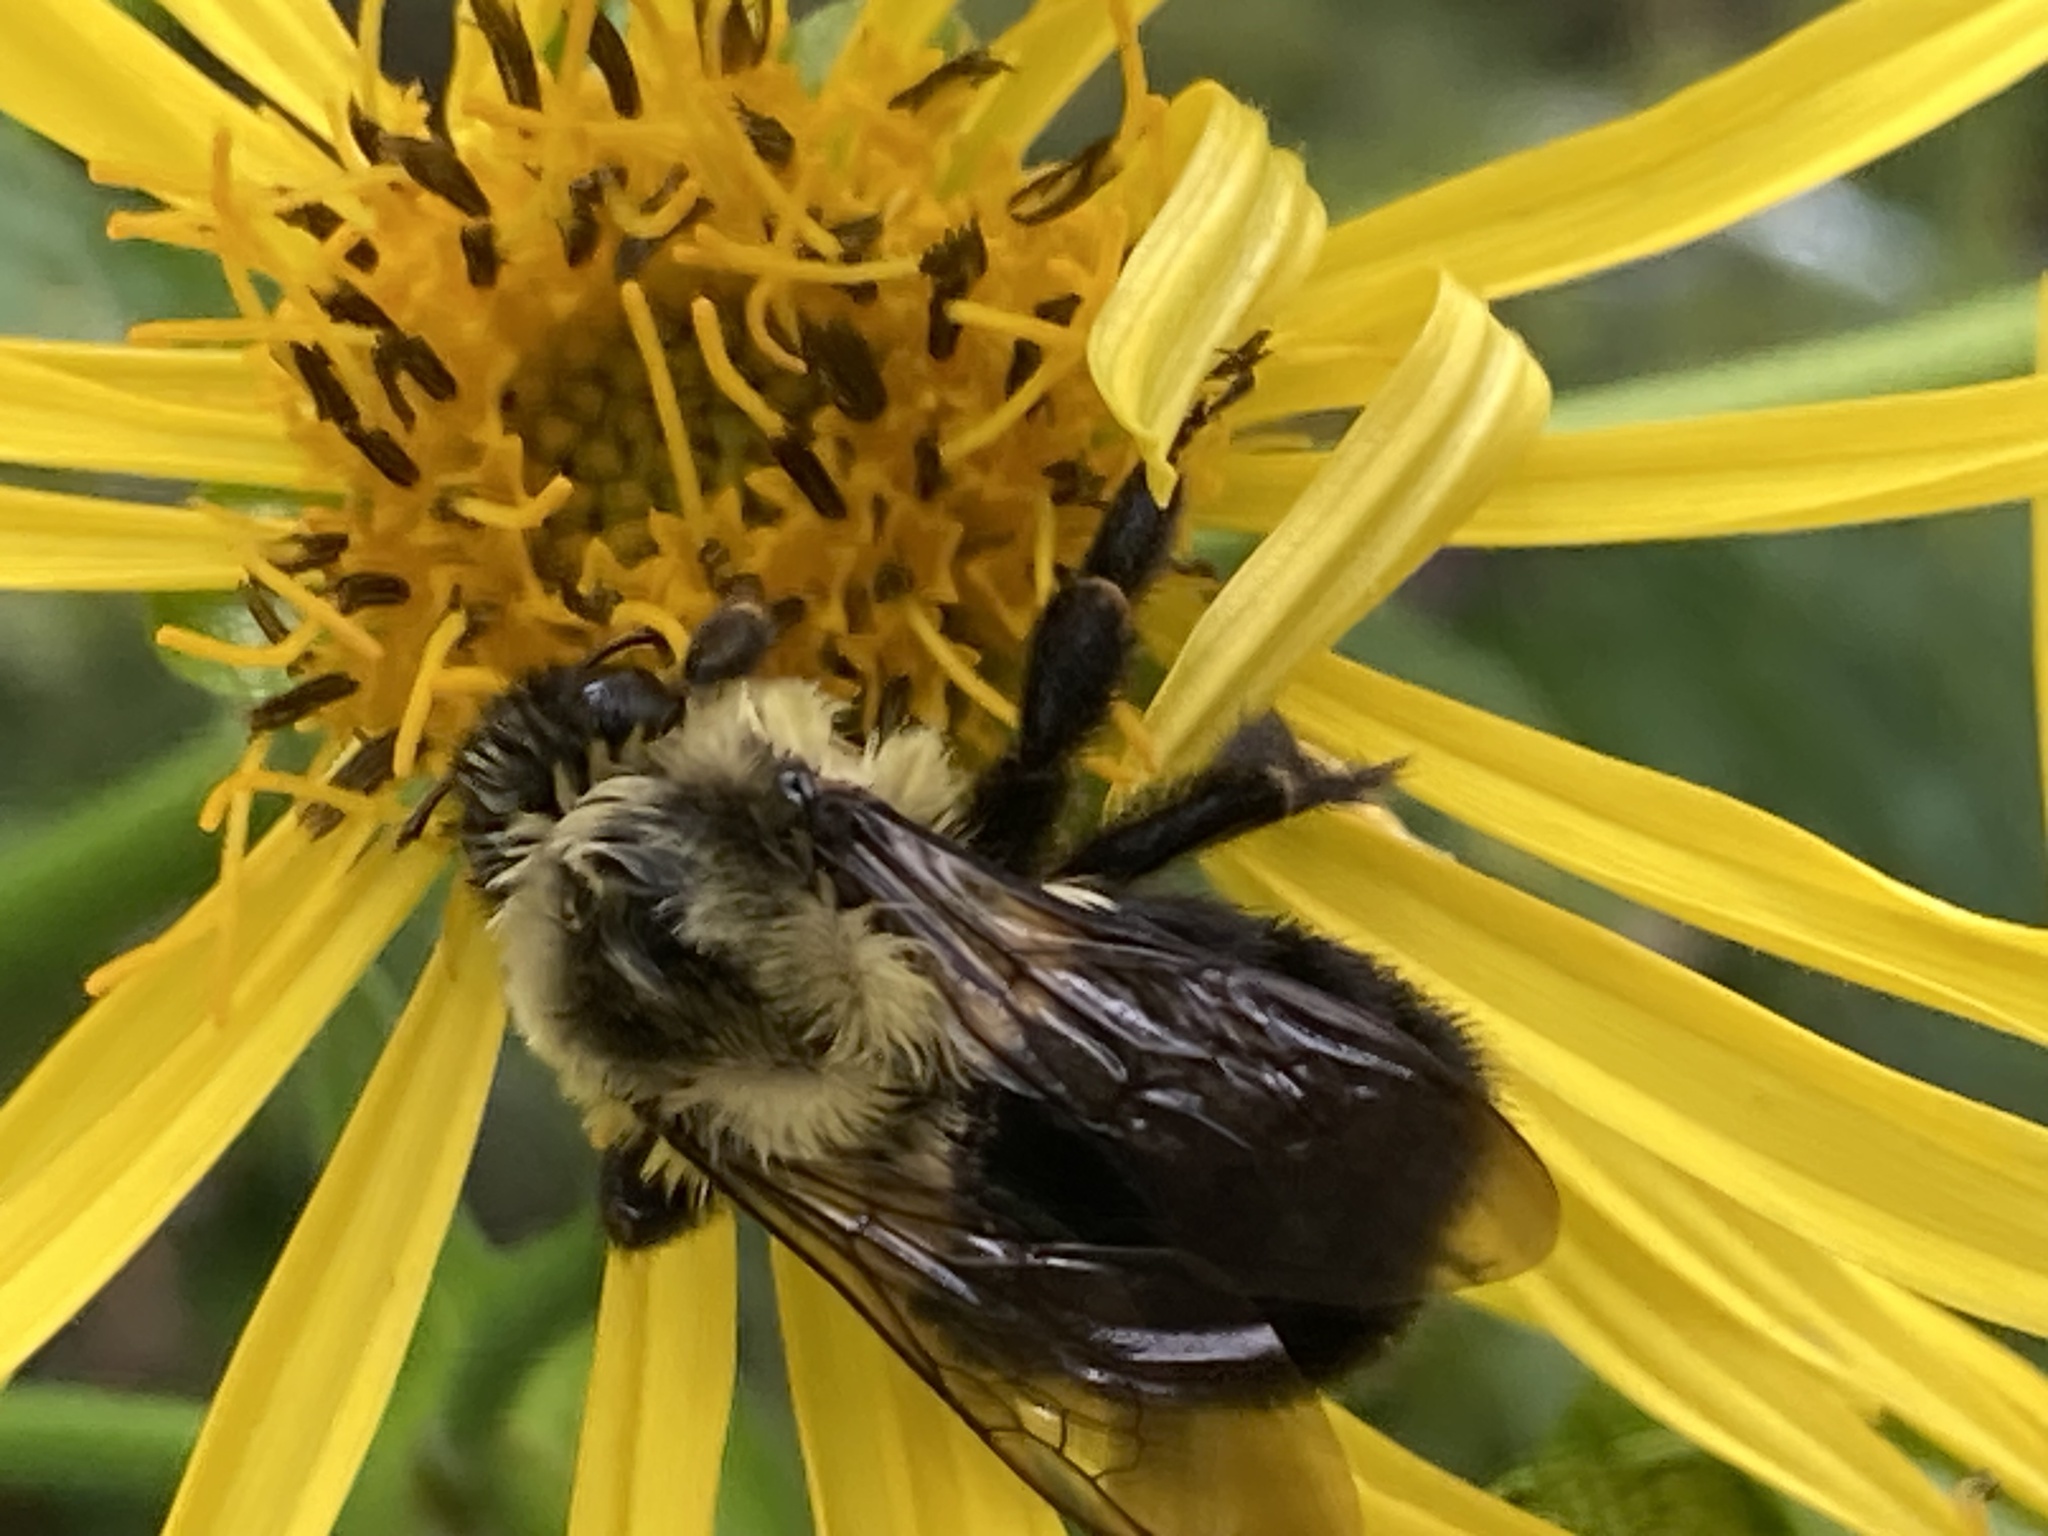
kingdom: Animalia
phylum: Arthropoda
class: Insecta
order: Hymenoptera
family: Apidae
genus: Bombus
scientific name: Bombus impatiens
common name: Common eastern bumble bee
